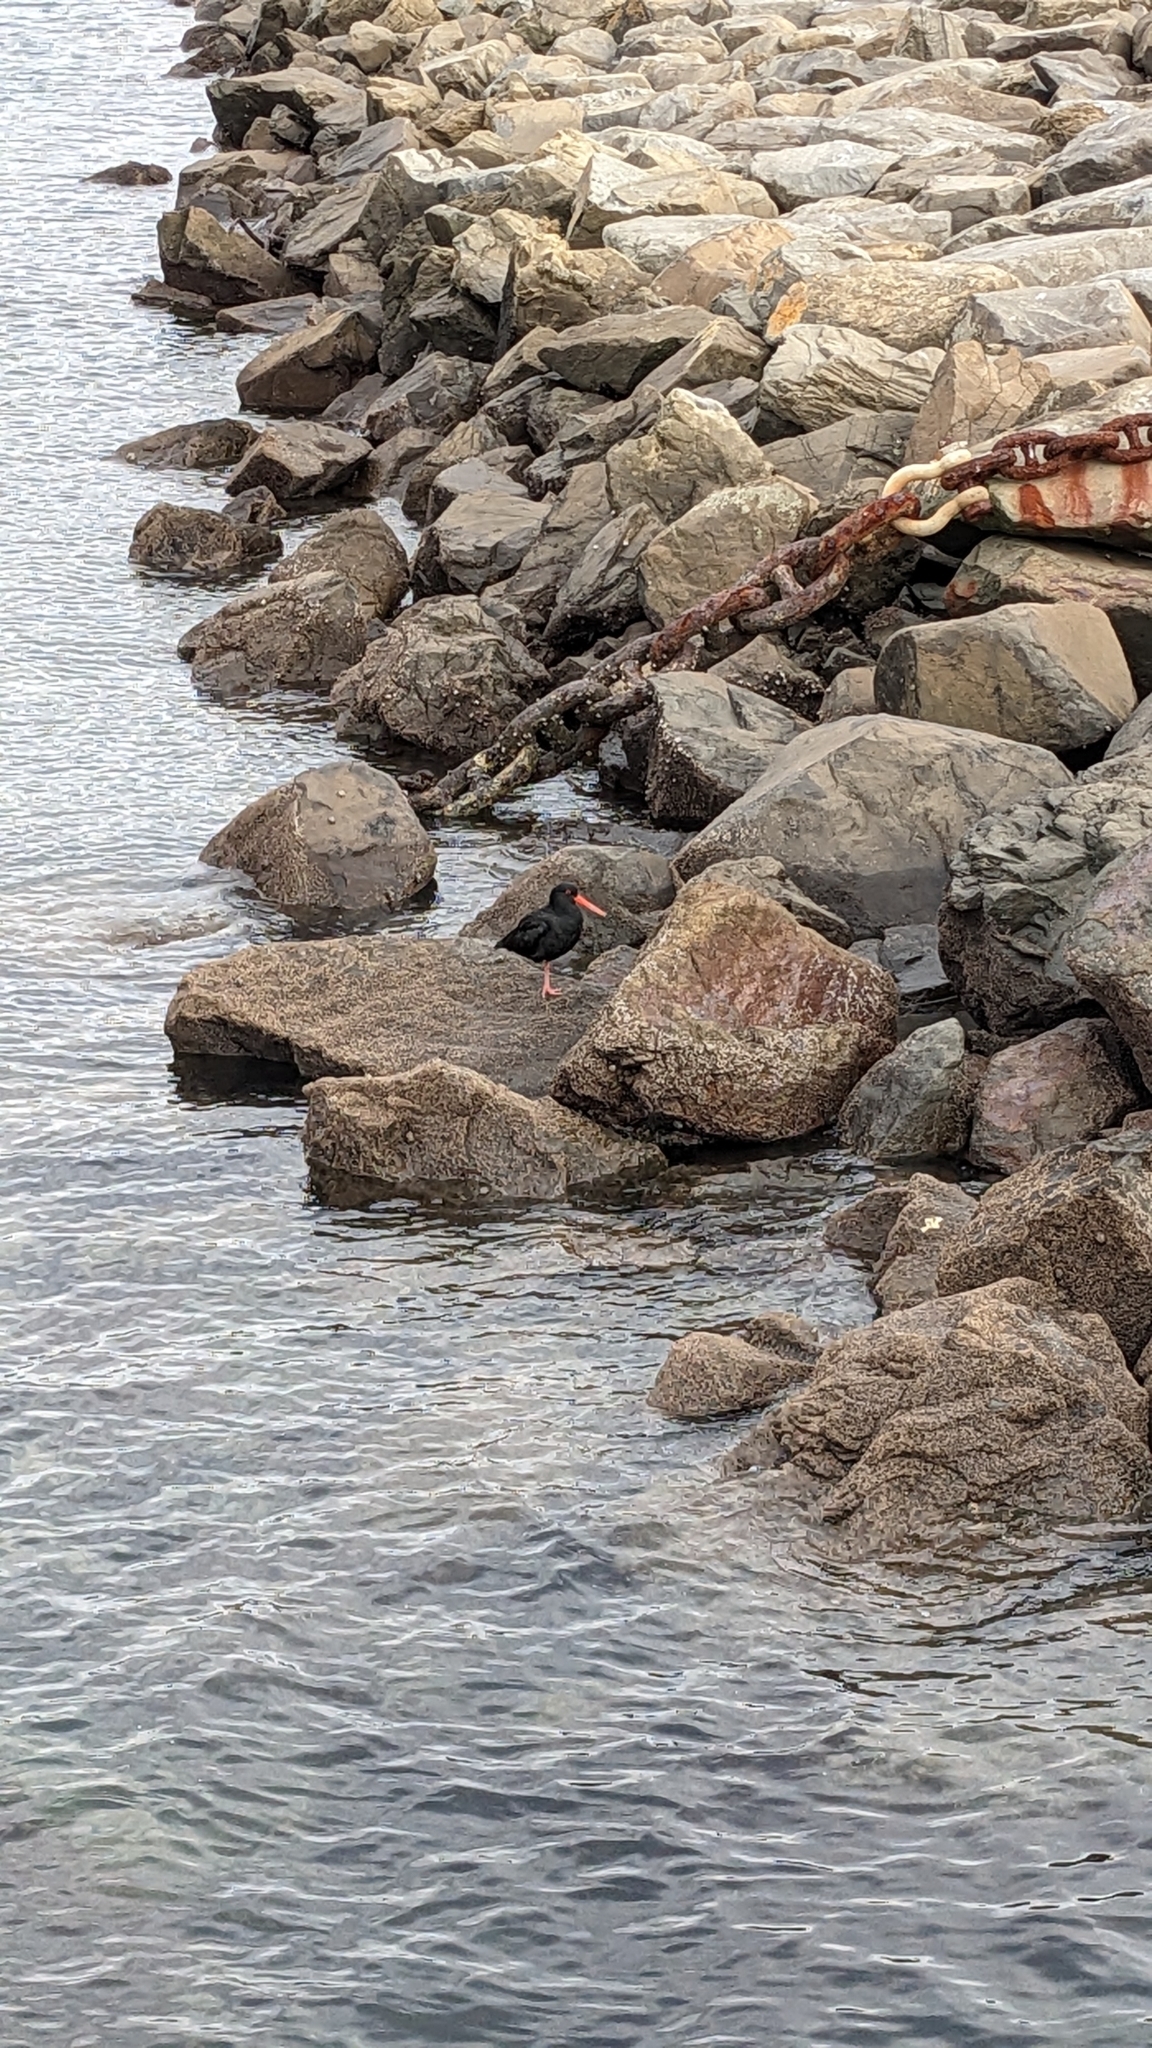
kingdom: Animalia
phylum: Chordata
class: Aves
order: Charadriiformes
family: Haematopodidae
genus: Haematopus
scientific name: Haematopus unicolor
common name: Variable oystercatcher
